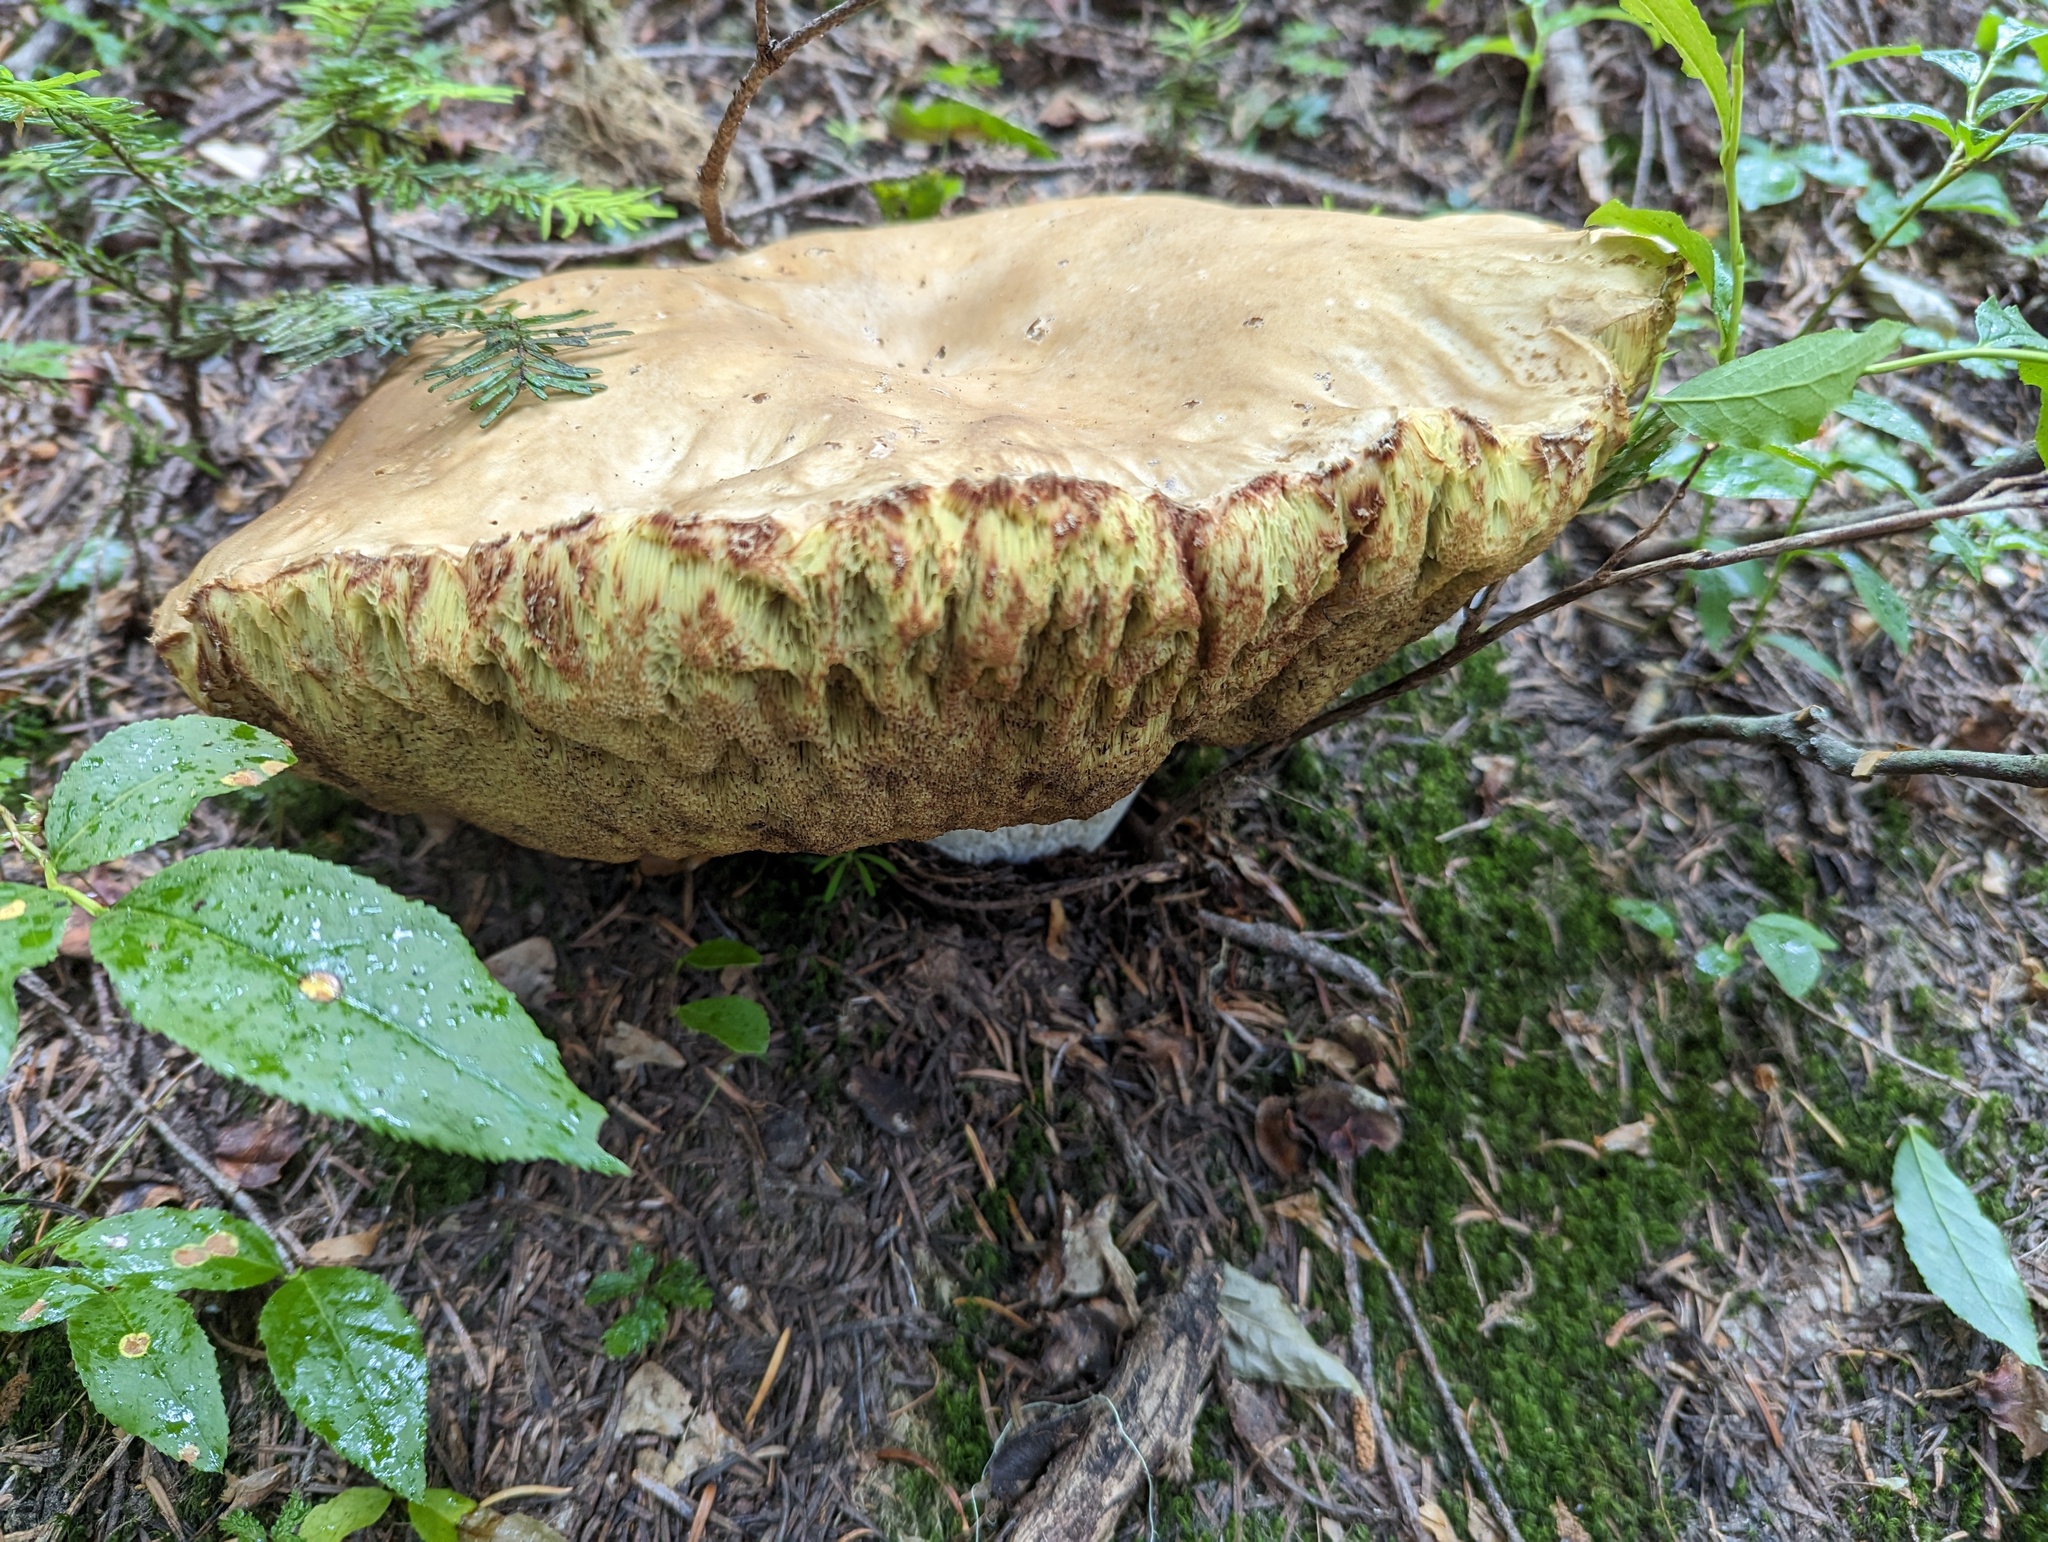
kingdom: Fungi
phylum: Basidiomycota
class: Agaricomycetes
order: Boletales
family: Boletaceae
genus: Boletus
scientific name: Boletus edulis
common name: Cep
